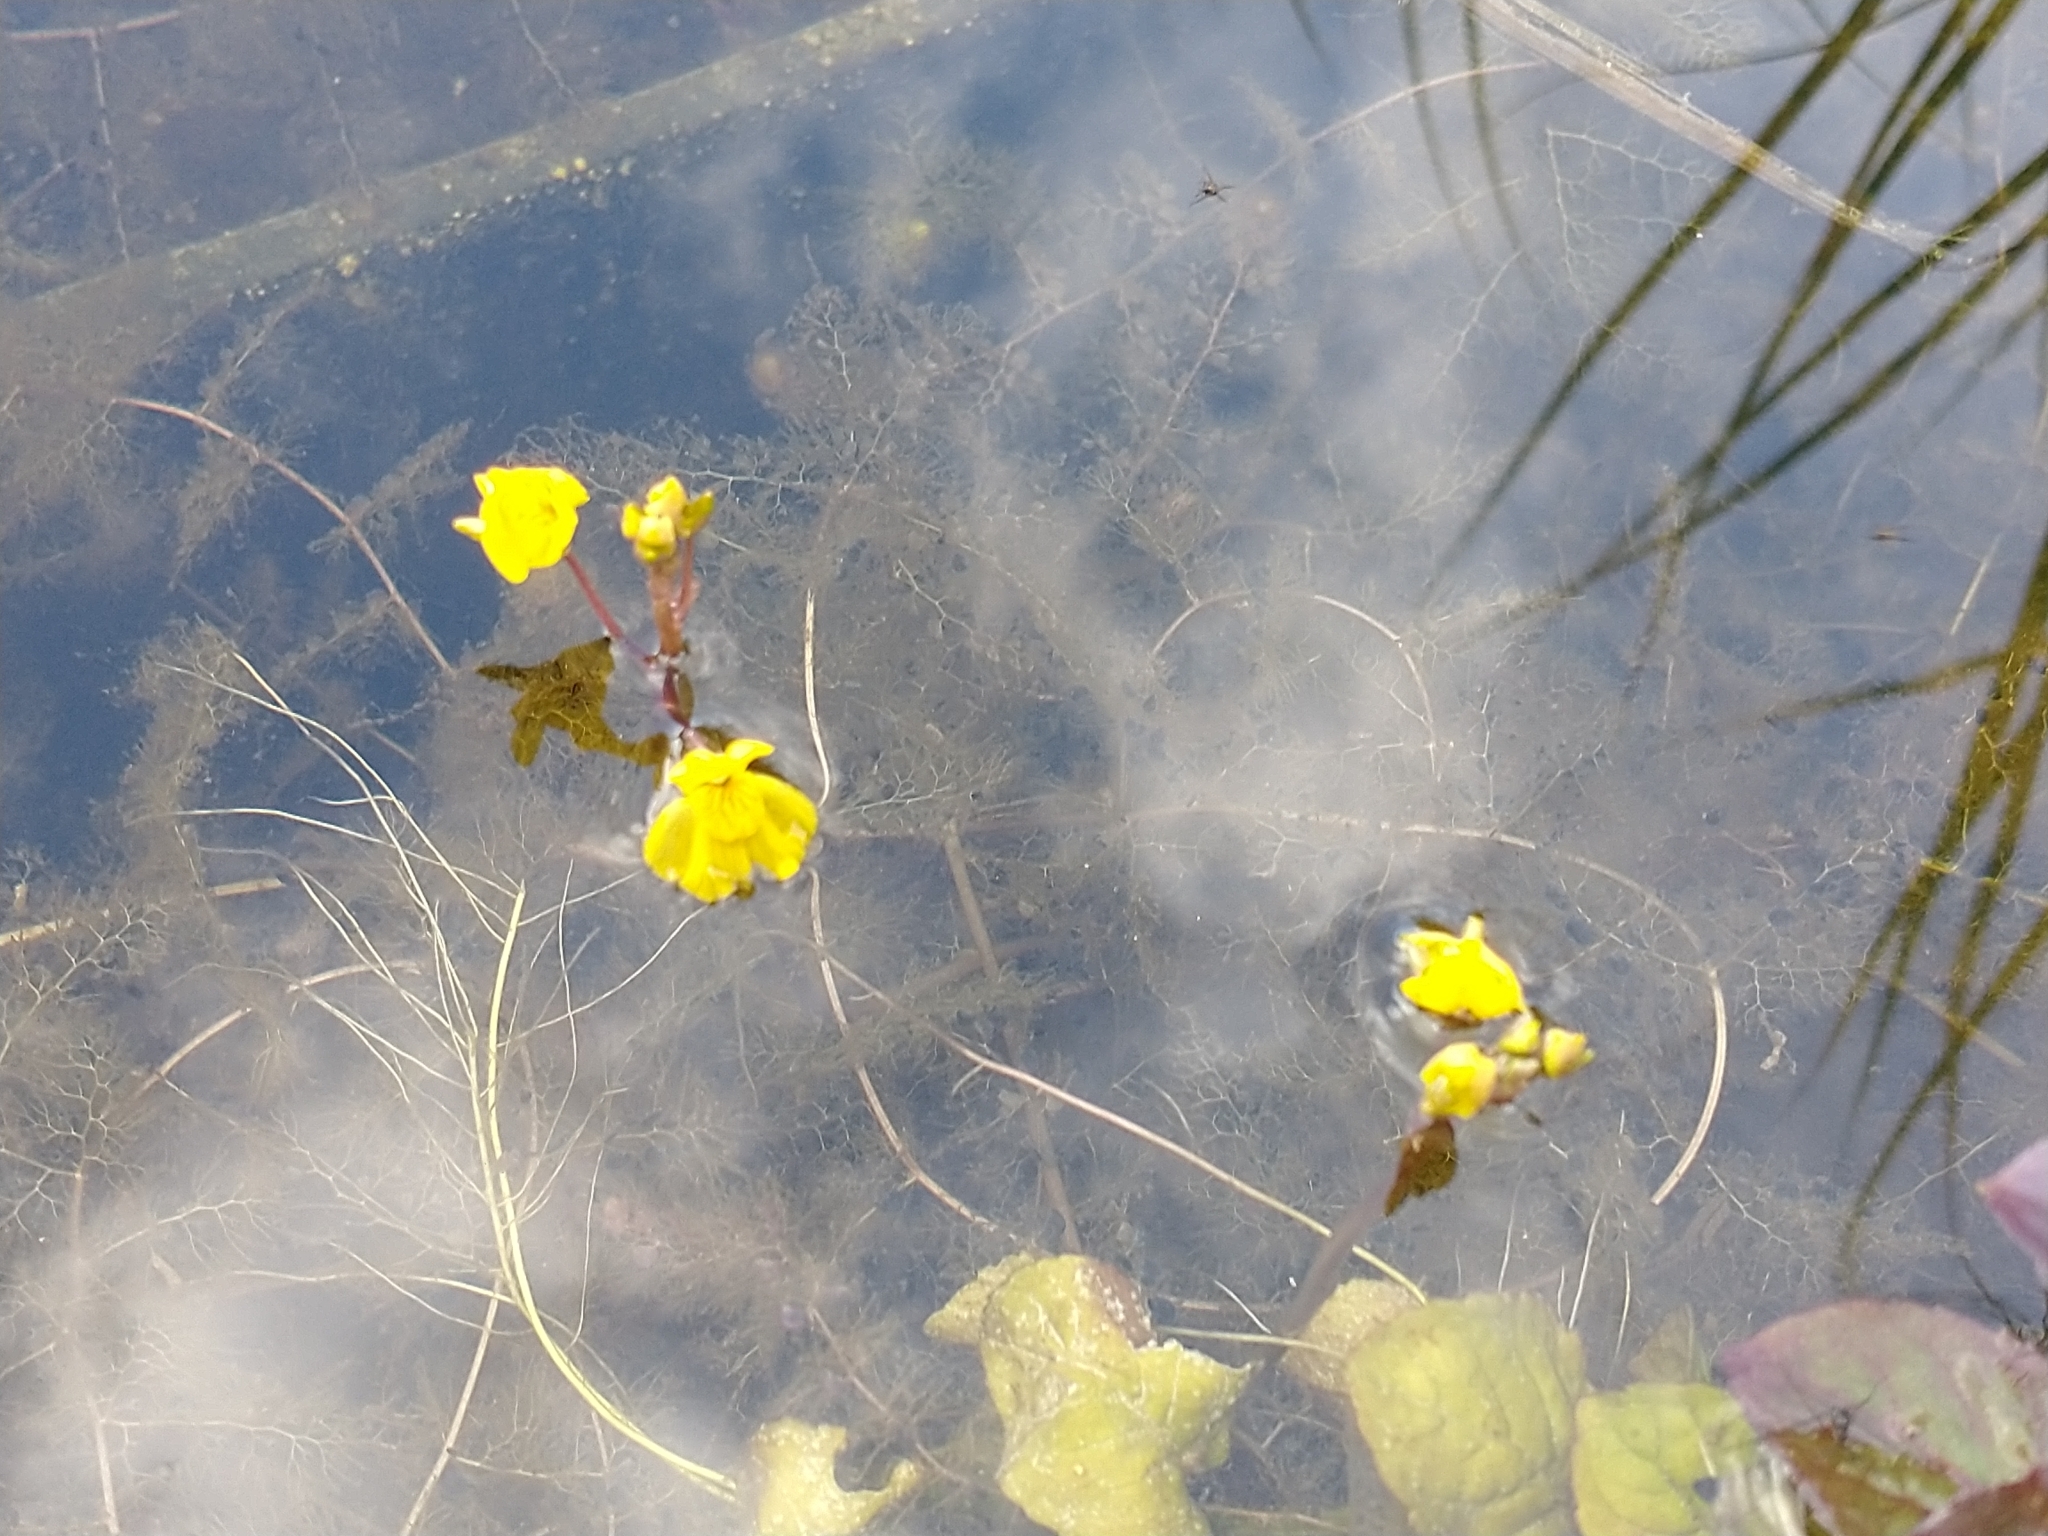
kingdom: Plantae
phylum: Tracheophyta
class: Magnoliopsida
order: Lamiales
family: Lentibulariaceae
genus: Utricularia
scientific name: Utricularia australis
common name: Bladderwort
